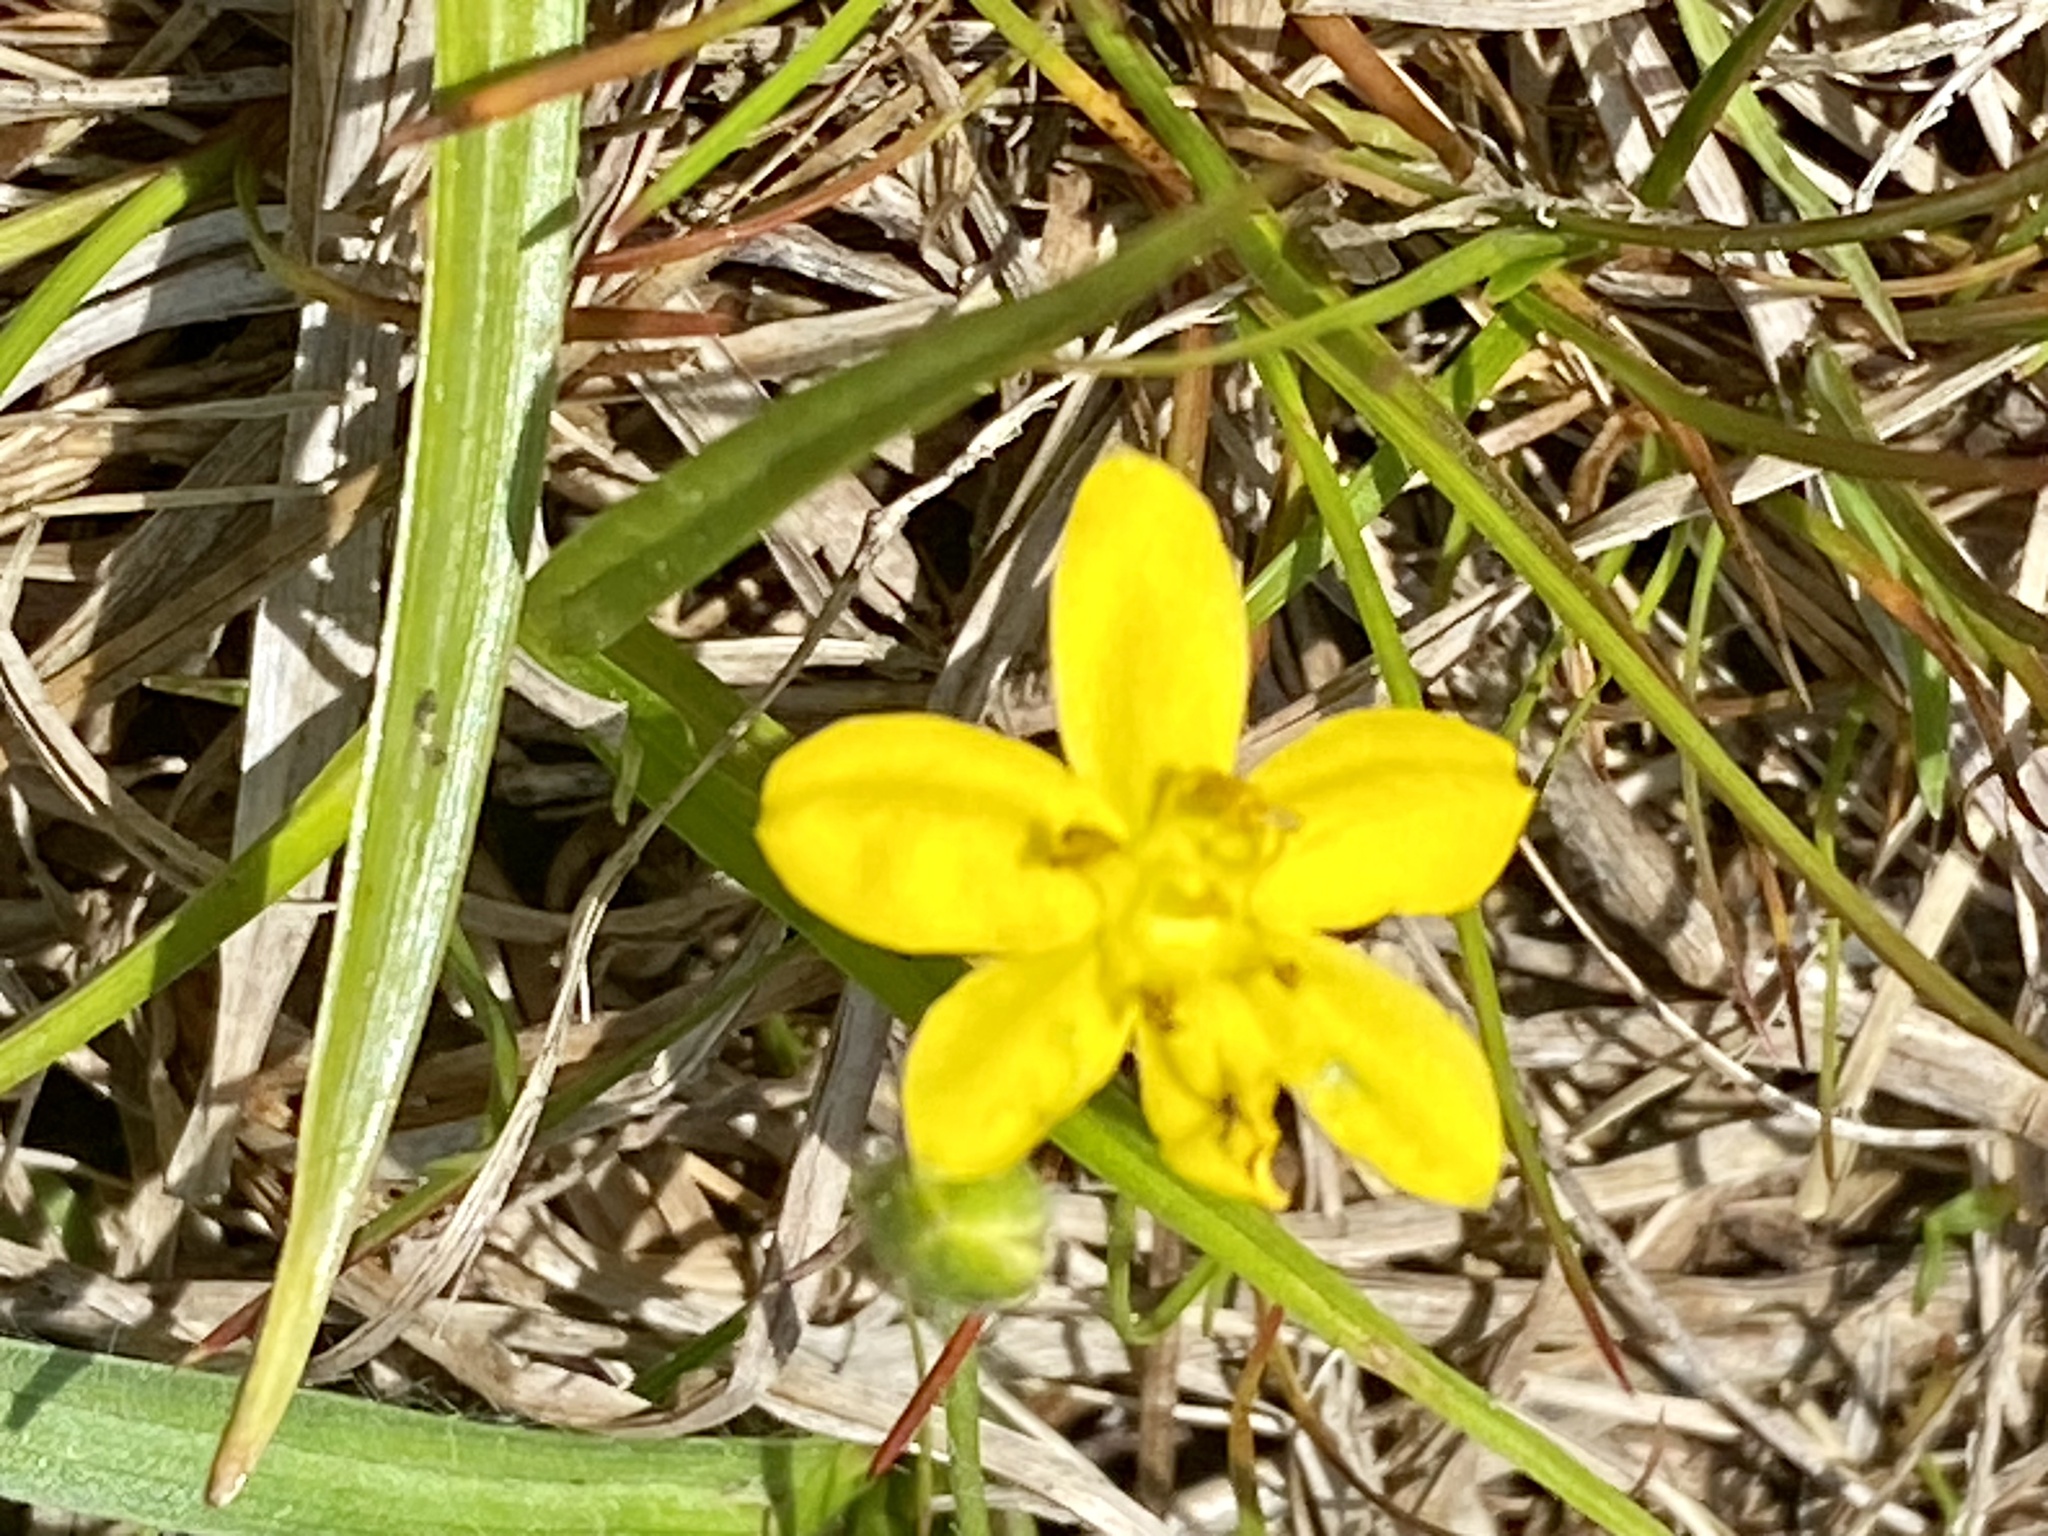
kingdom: Plantae
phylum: Tracheophyta
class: Liliopsida
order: Asparagales
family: Hypoxidaceae
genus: Hypoxis
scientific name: Hypoxis hirsuta
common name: Common goldstar
